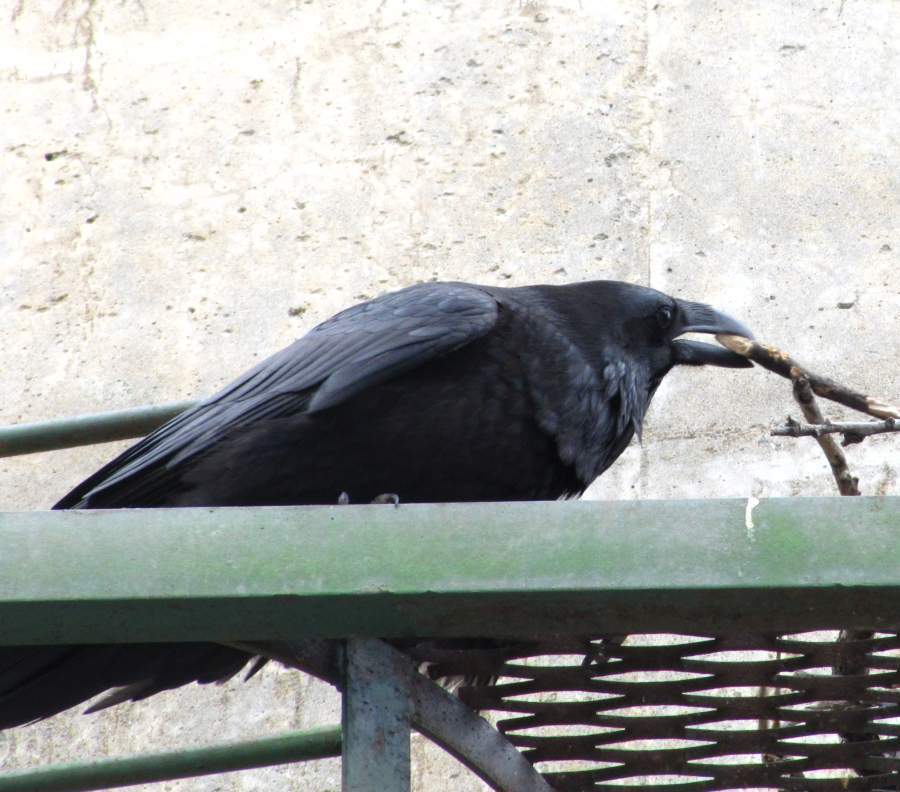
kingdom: Animalia
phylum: Chordata
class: Aves
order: Passeriformes
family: Corvidae
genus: Corvus
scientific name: Corvus corax
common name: Common raven
